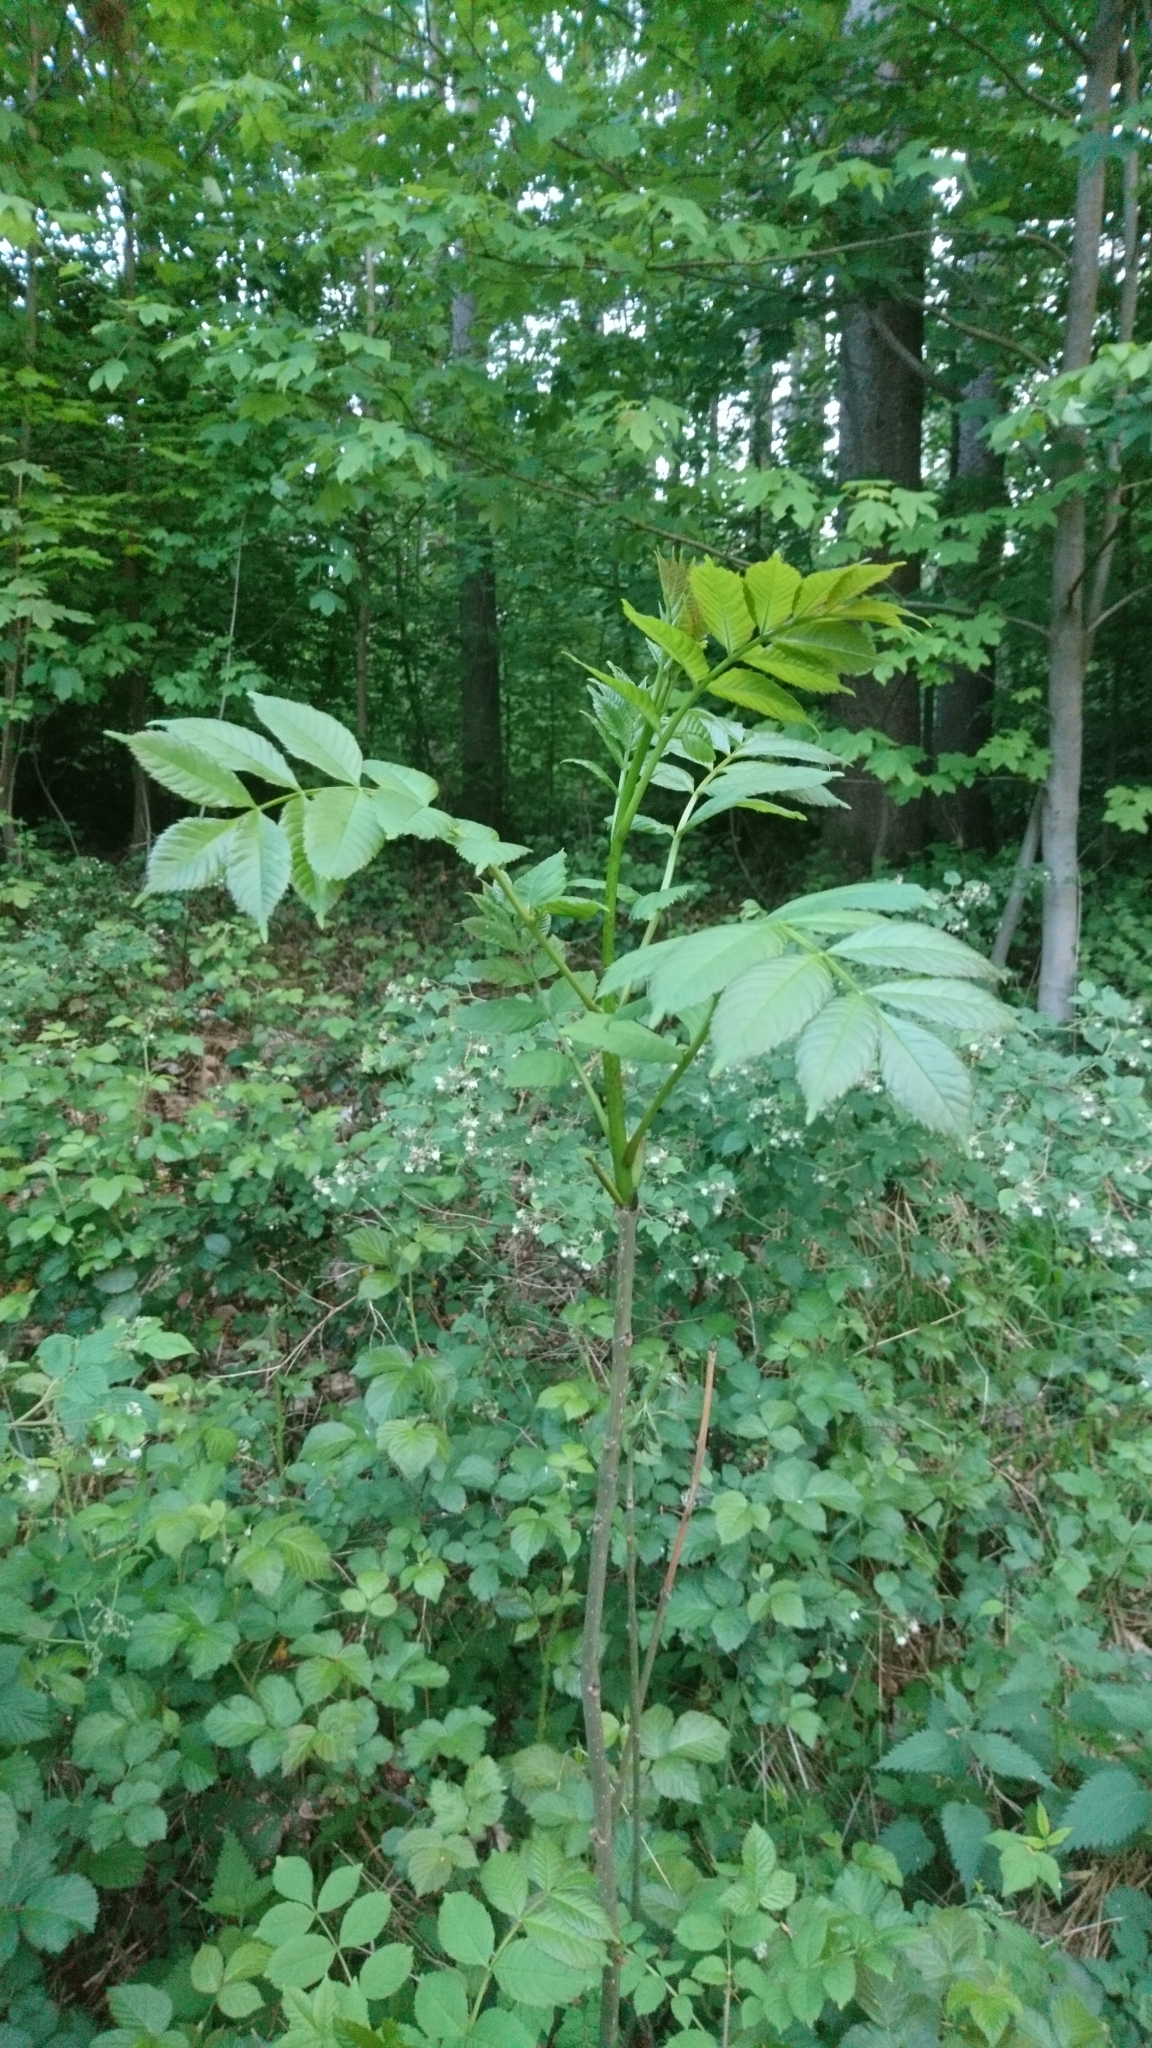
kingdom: Plantae
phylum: Tracheophyta
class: Magnoliopsida
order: Lamiales
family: Oleaceae
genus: Fraxinus
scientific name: Fraxinus excelsior
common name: European ash
